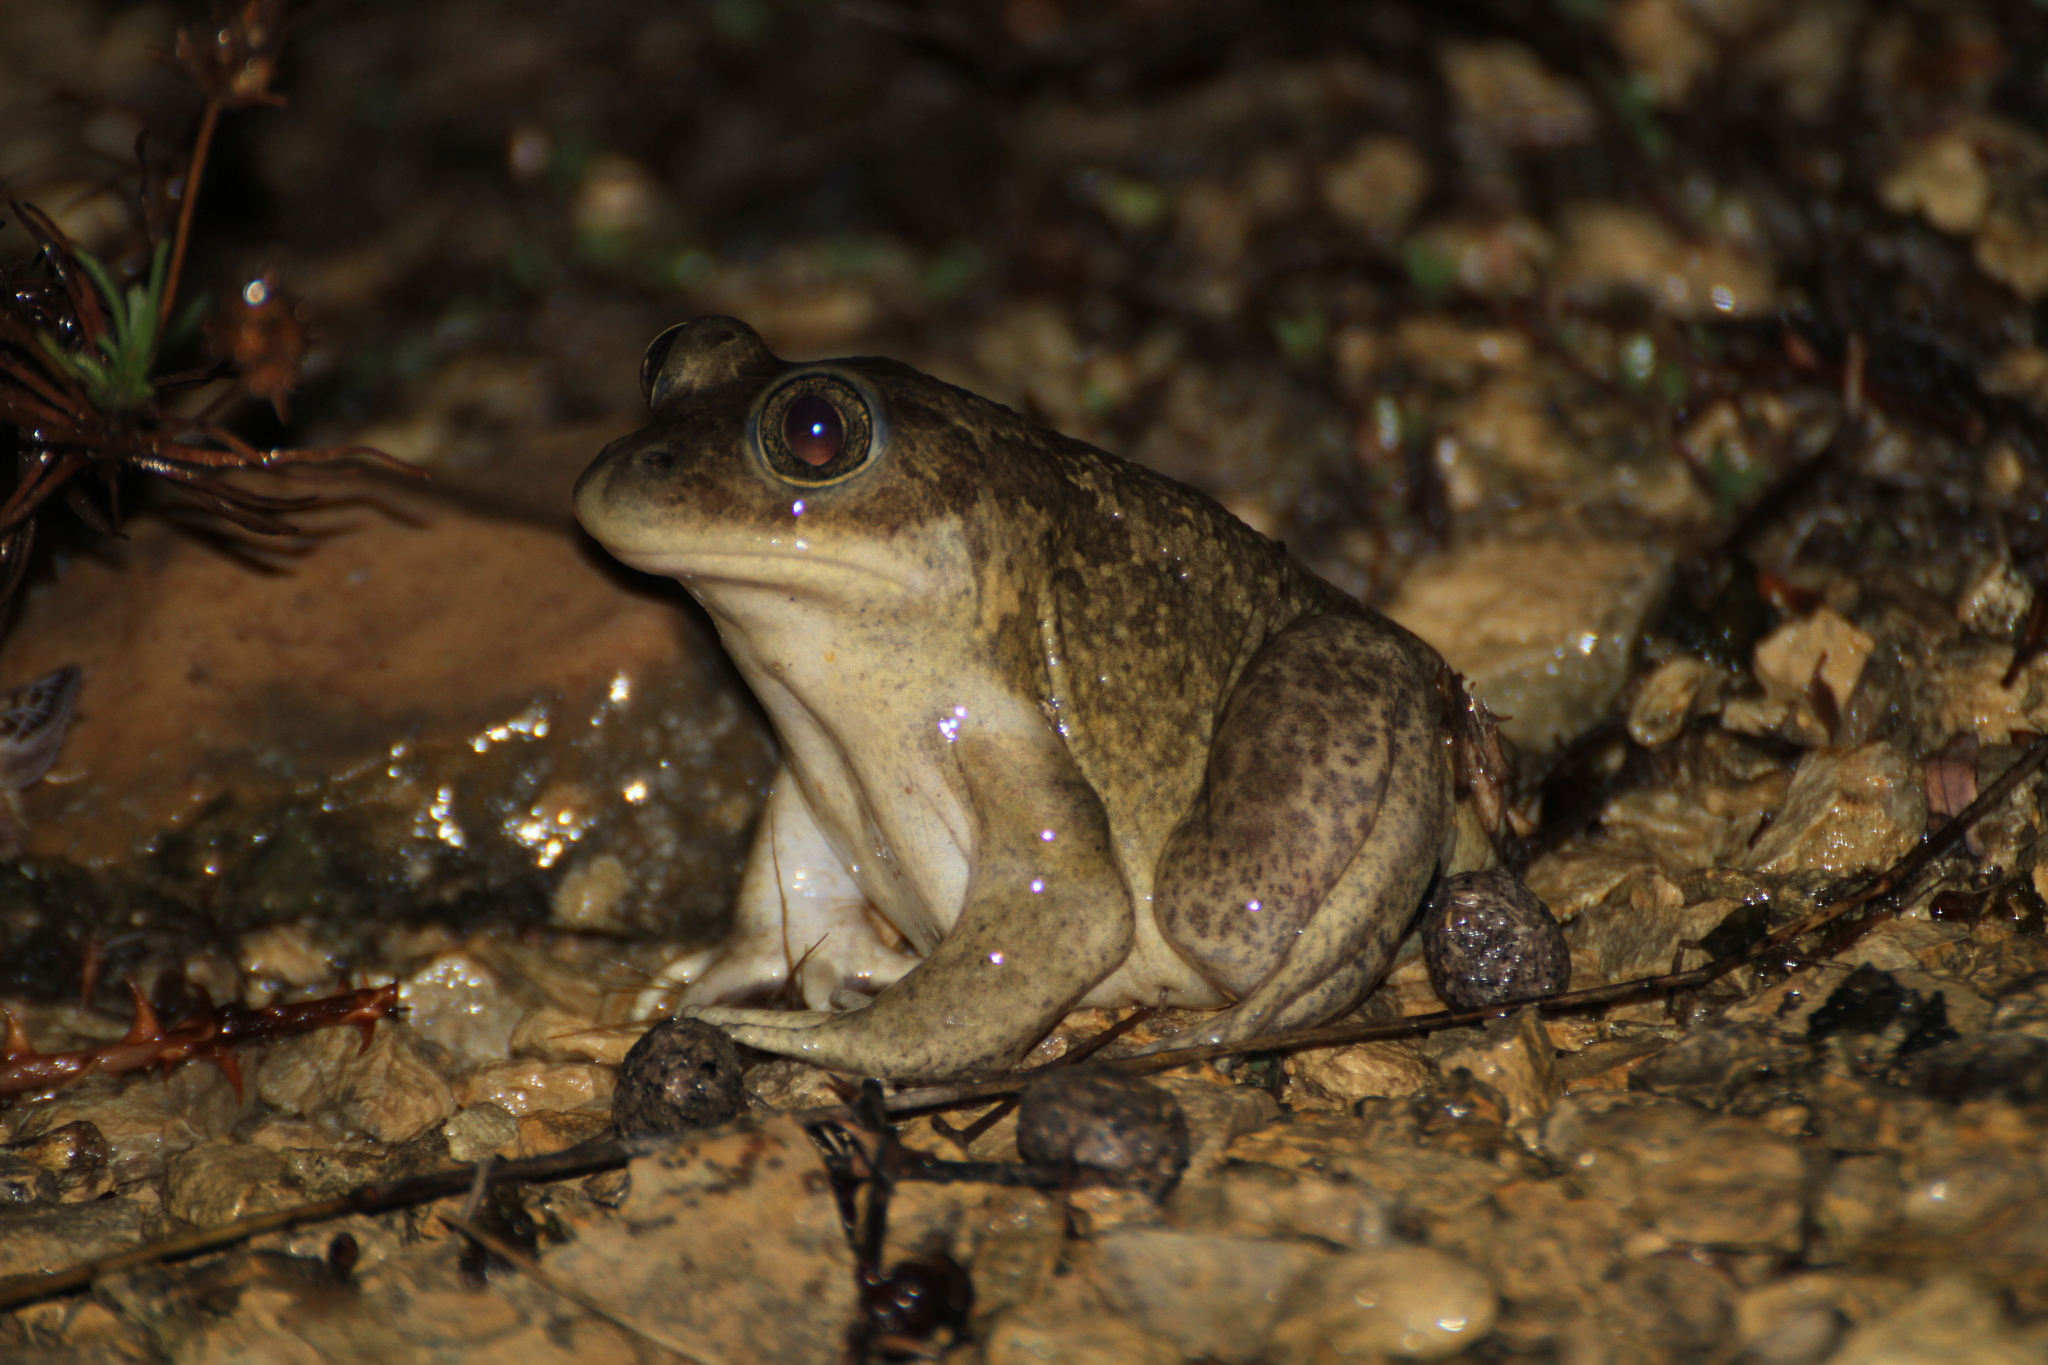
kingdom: Animalia
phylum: Chordata
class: Amphibia
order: Anura
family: Pelobatidae
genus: Pelobates
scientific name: Pelobates cultripes
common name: Western spadefoot
